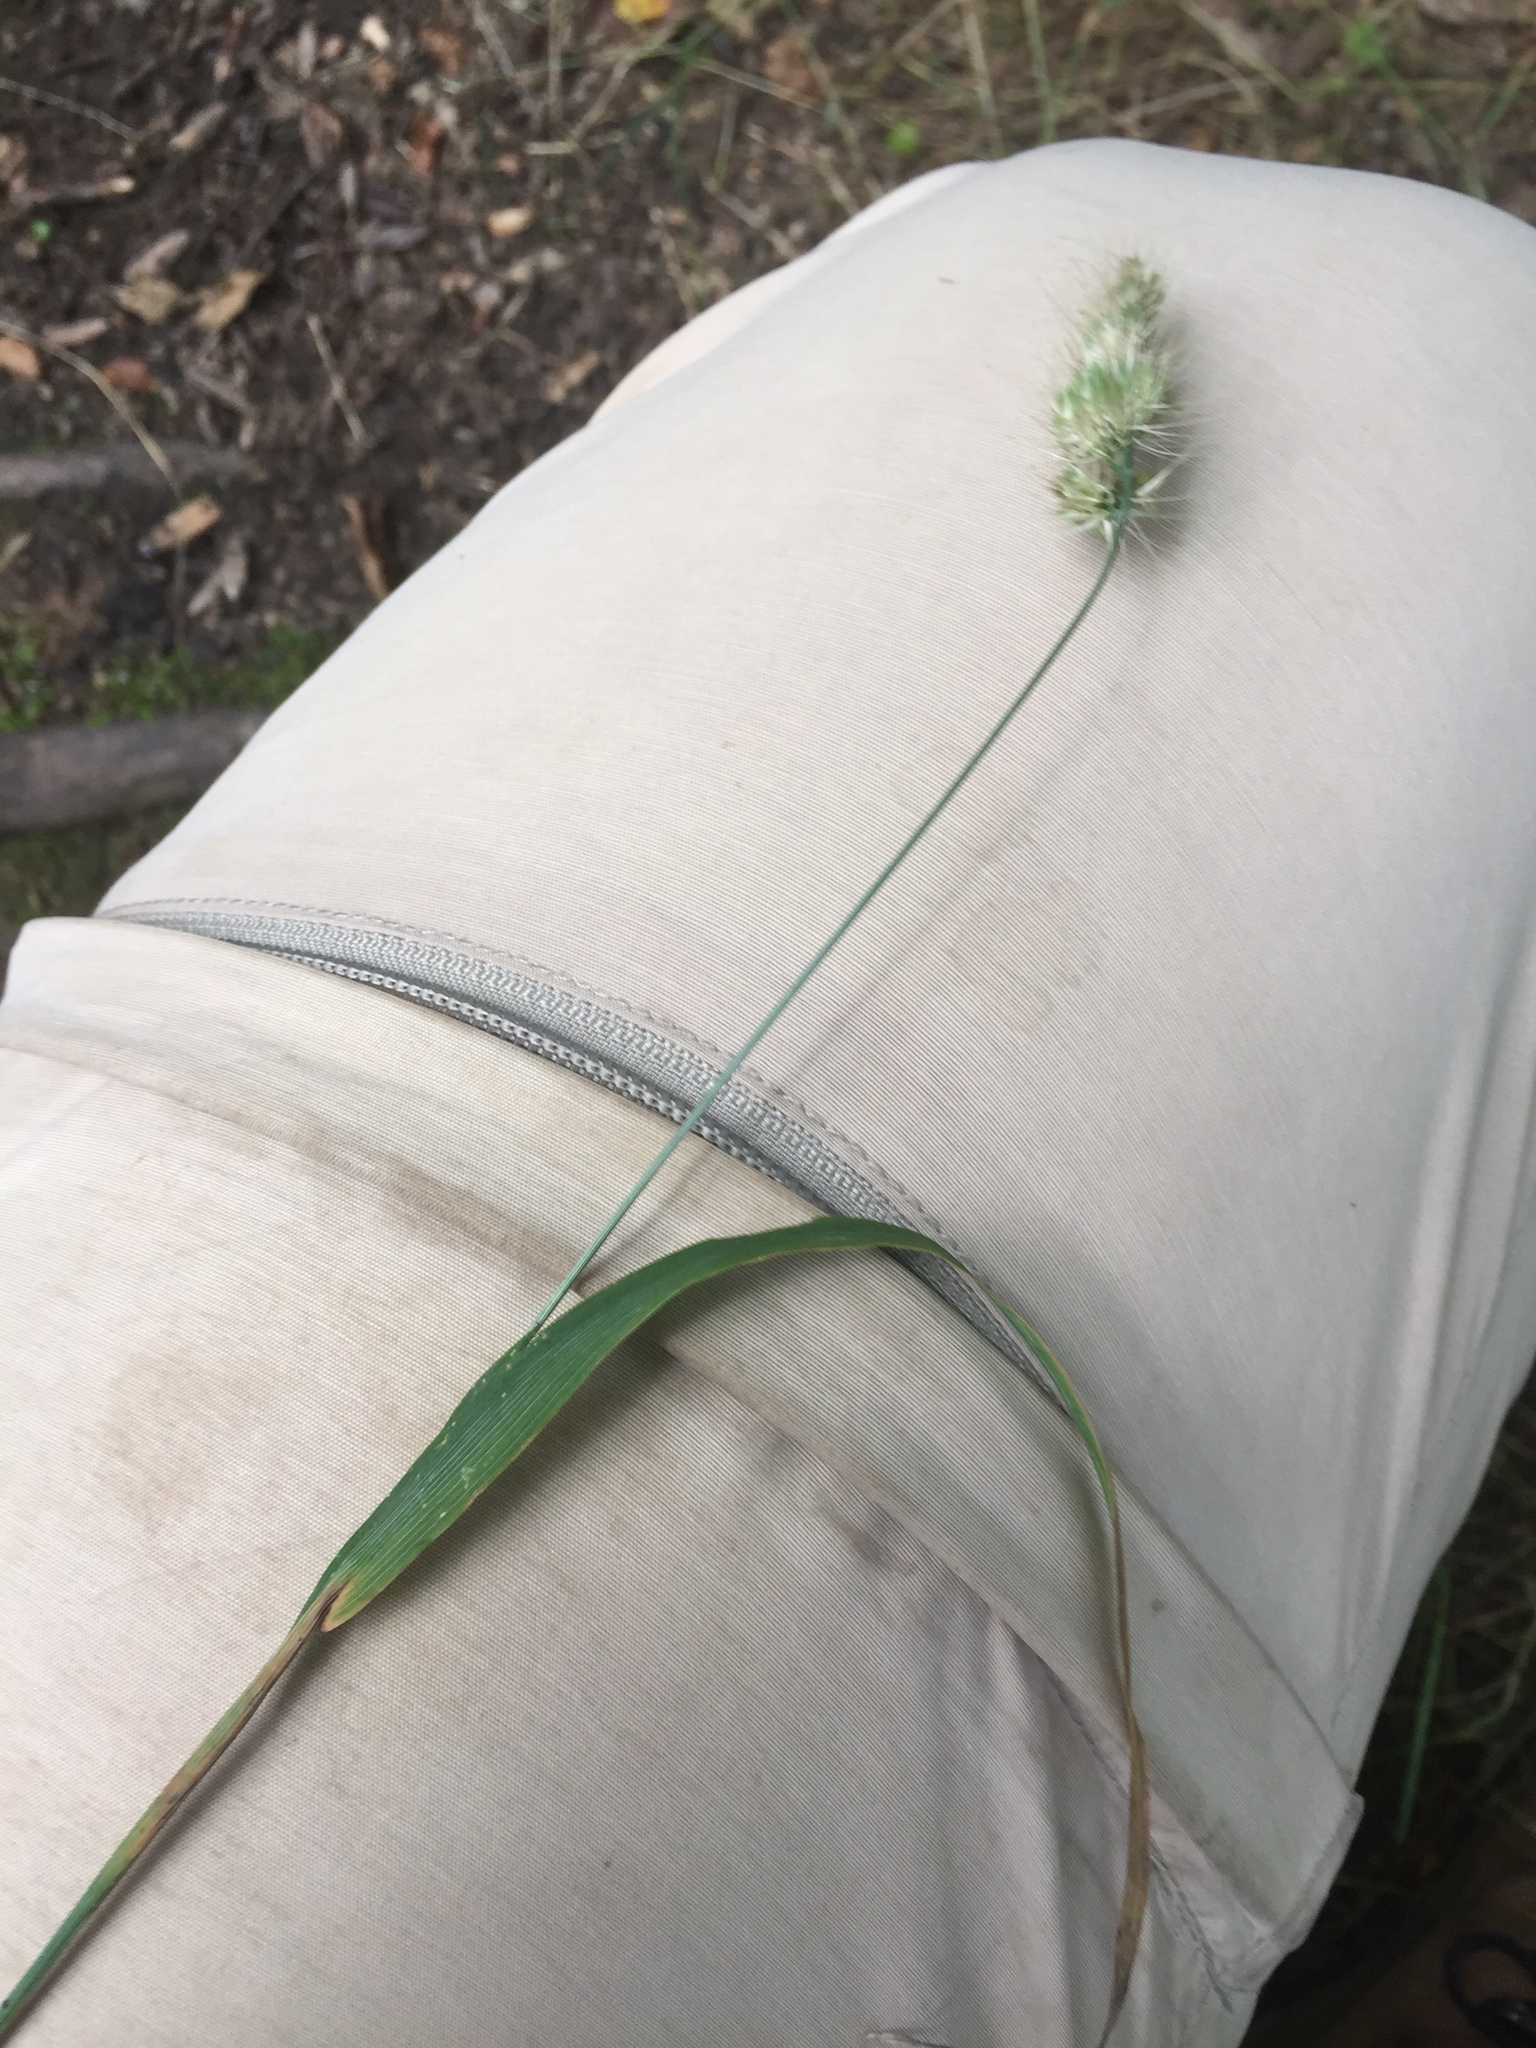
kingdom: Plantae
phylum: Tracheophyta
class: Liliopsida
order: Poales
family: Poaceae
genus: Cynosurus
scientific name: Cynosurus echinatus
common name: Rough dog's-tail
